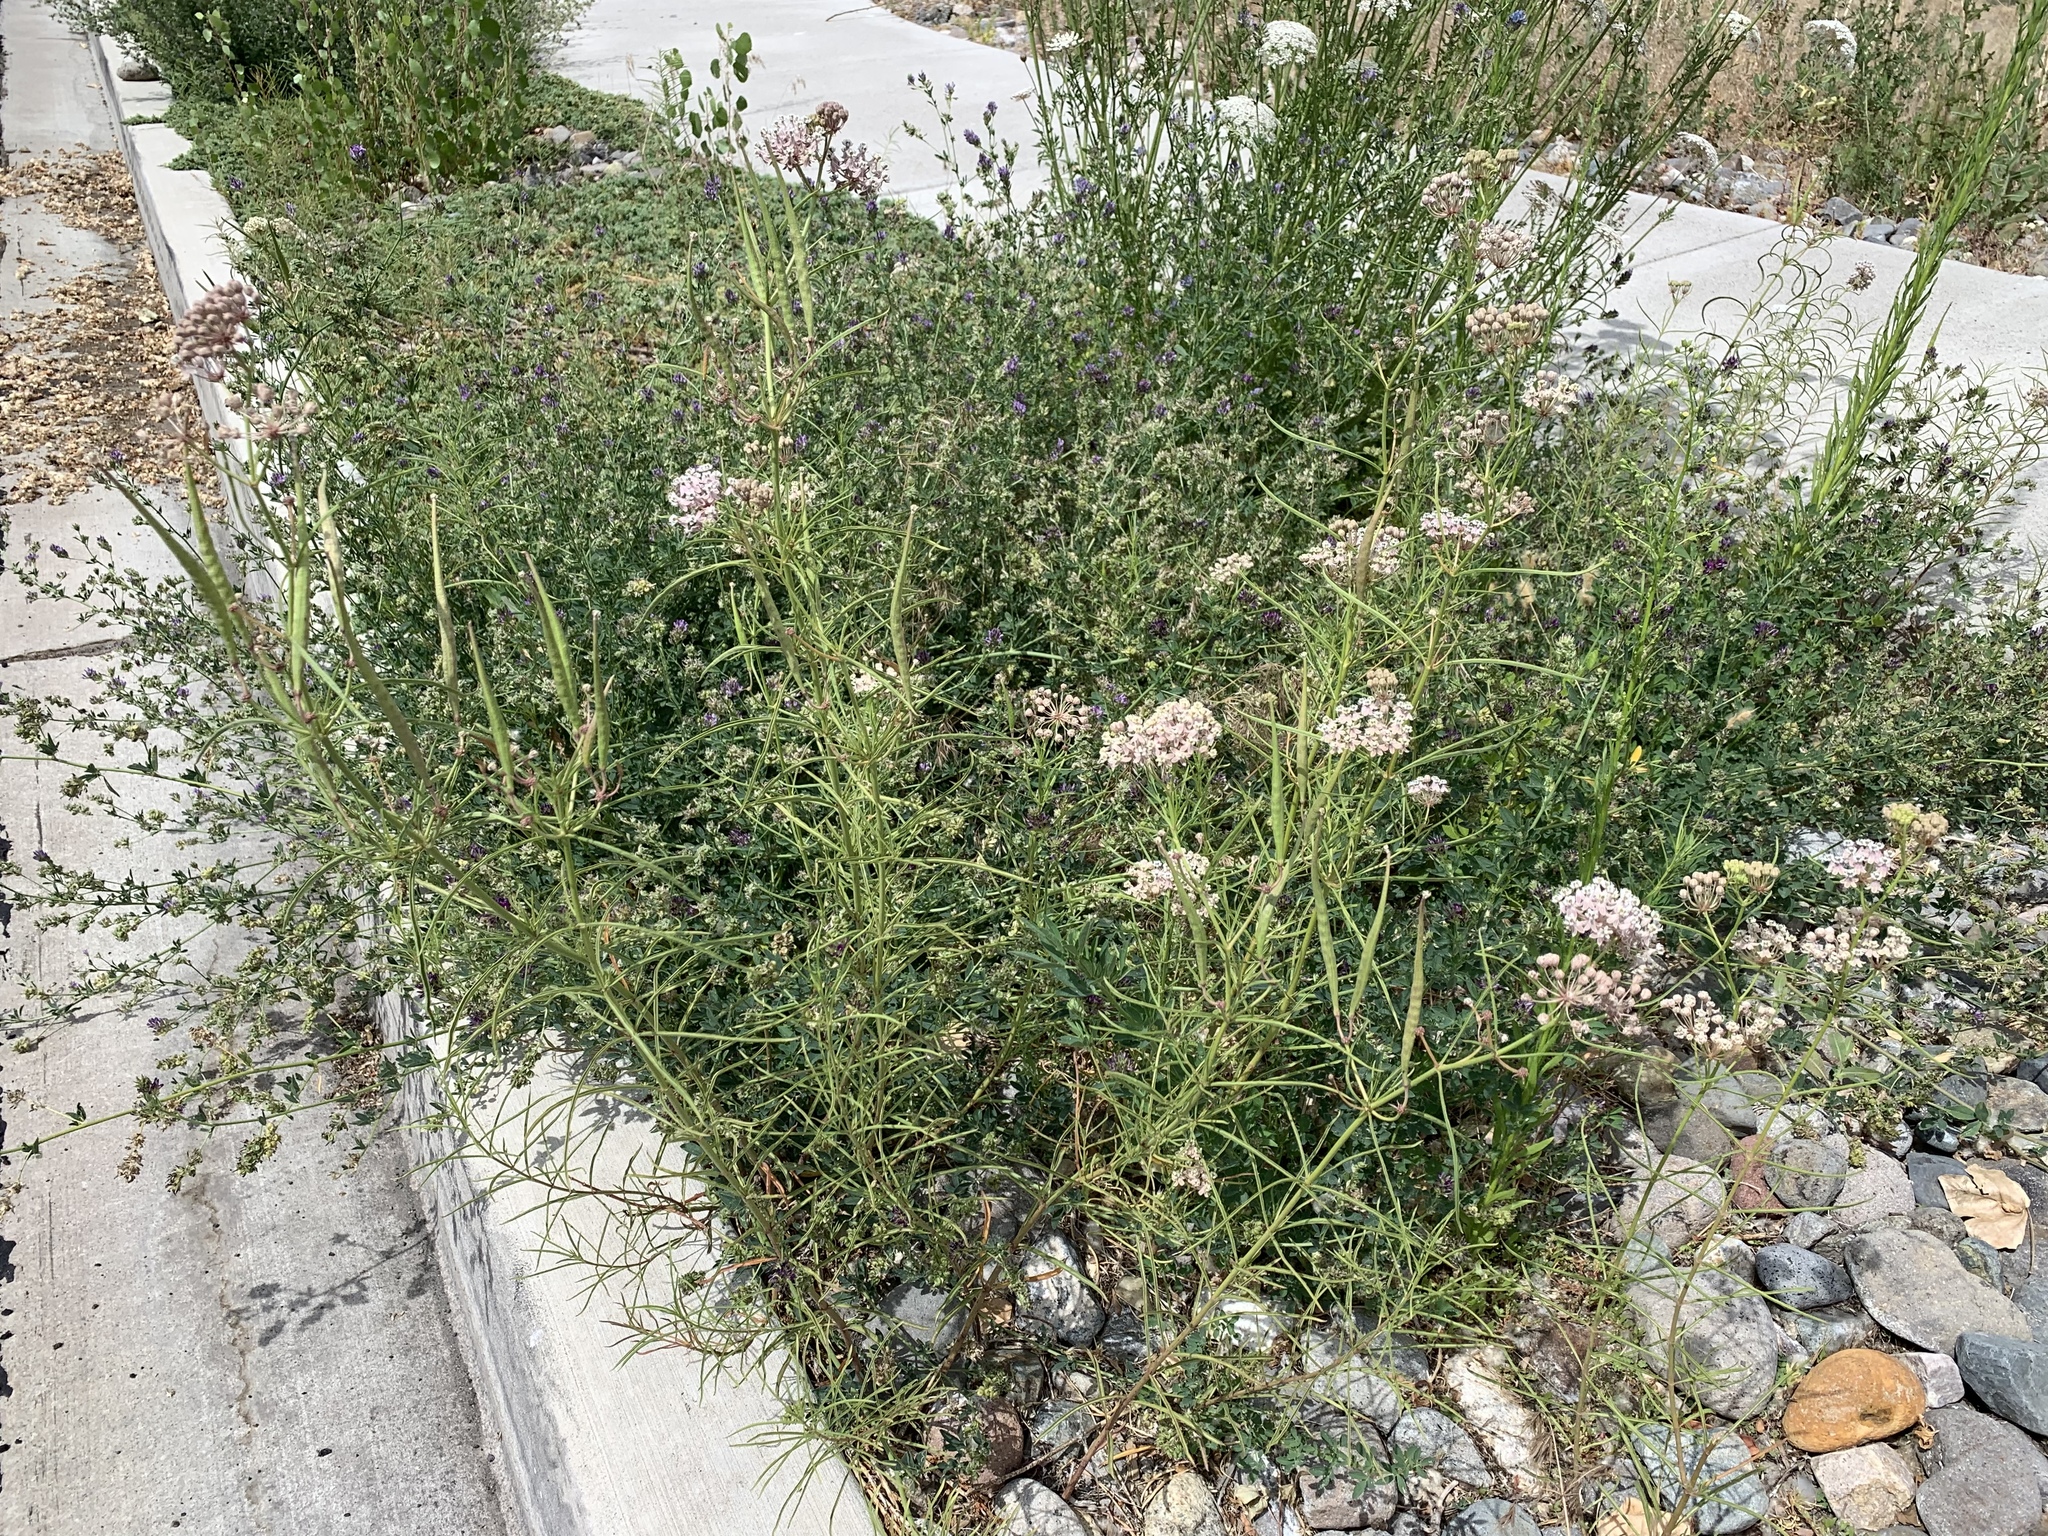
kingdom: Plantae
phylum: Tracheophyta
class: Magnoliopsida
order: Gentianales
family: Apocynaceae
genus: Asclepias
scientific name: Asclepias fascicularis
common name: Mexican milkweed
